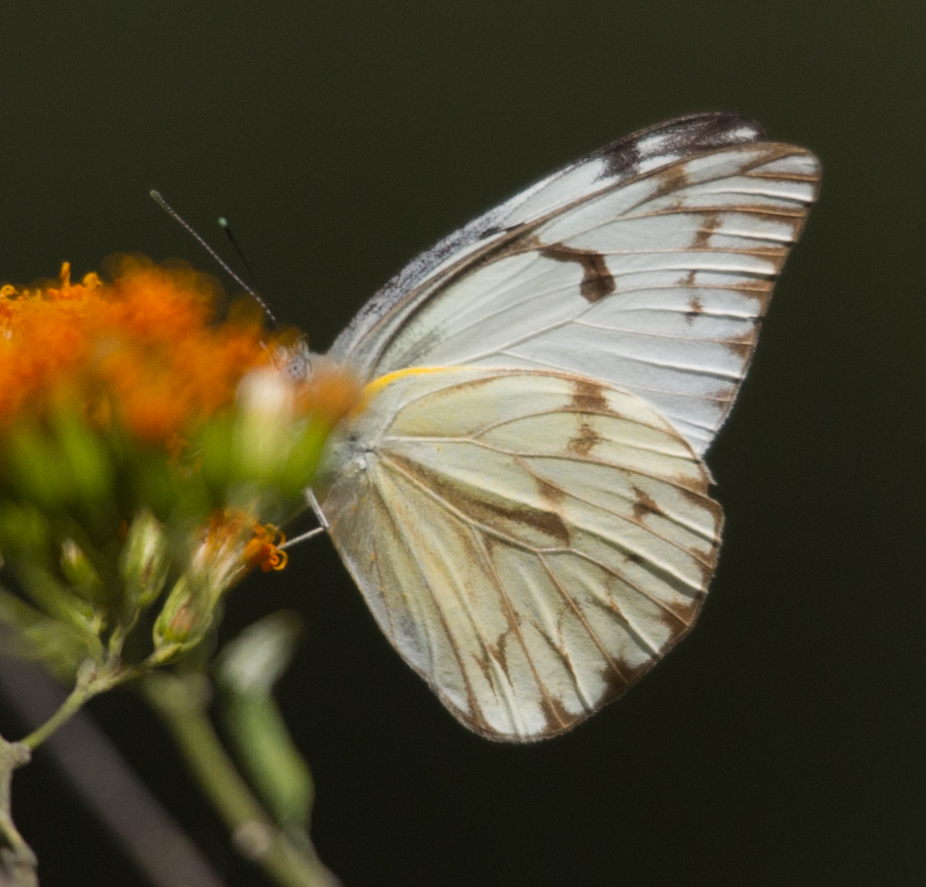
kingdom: Animalia
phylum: Arthropoda
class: Insecta
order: Lepidoptera
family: Pieridae
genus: Belenois
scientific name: Belenois gidica
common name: Pointed caper white
